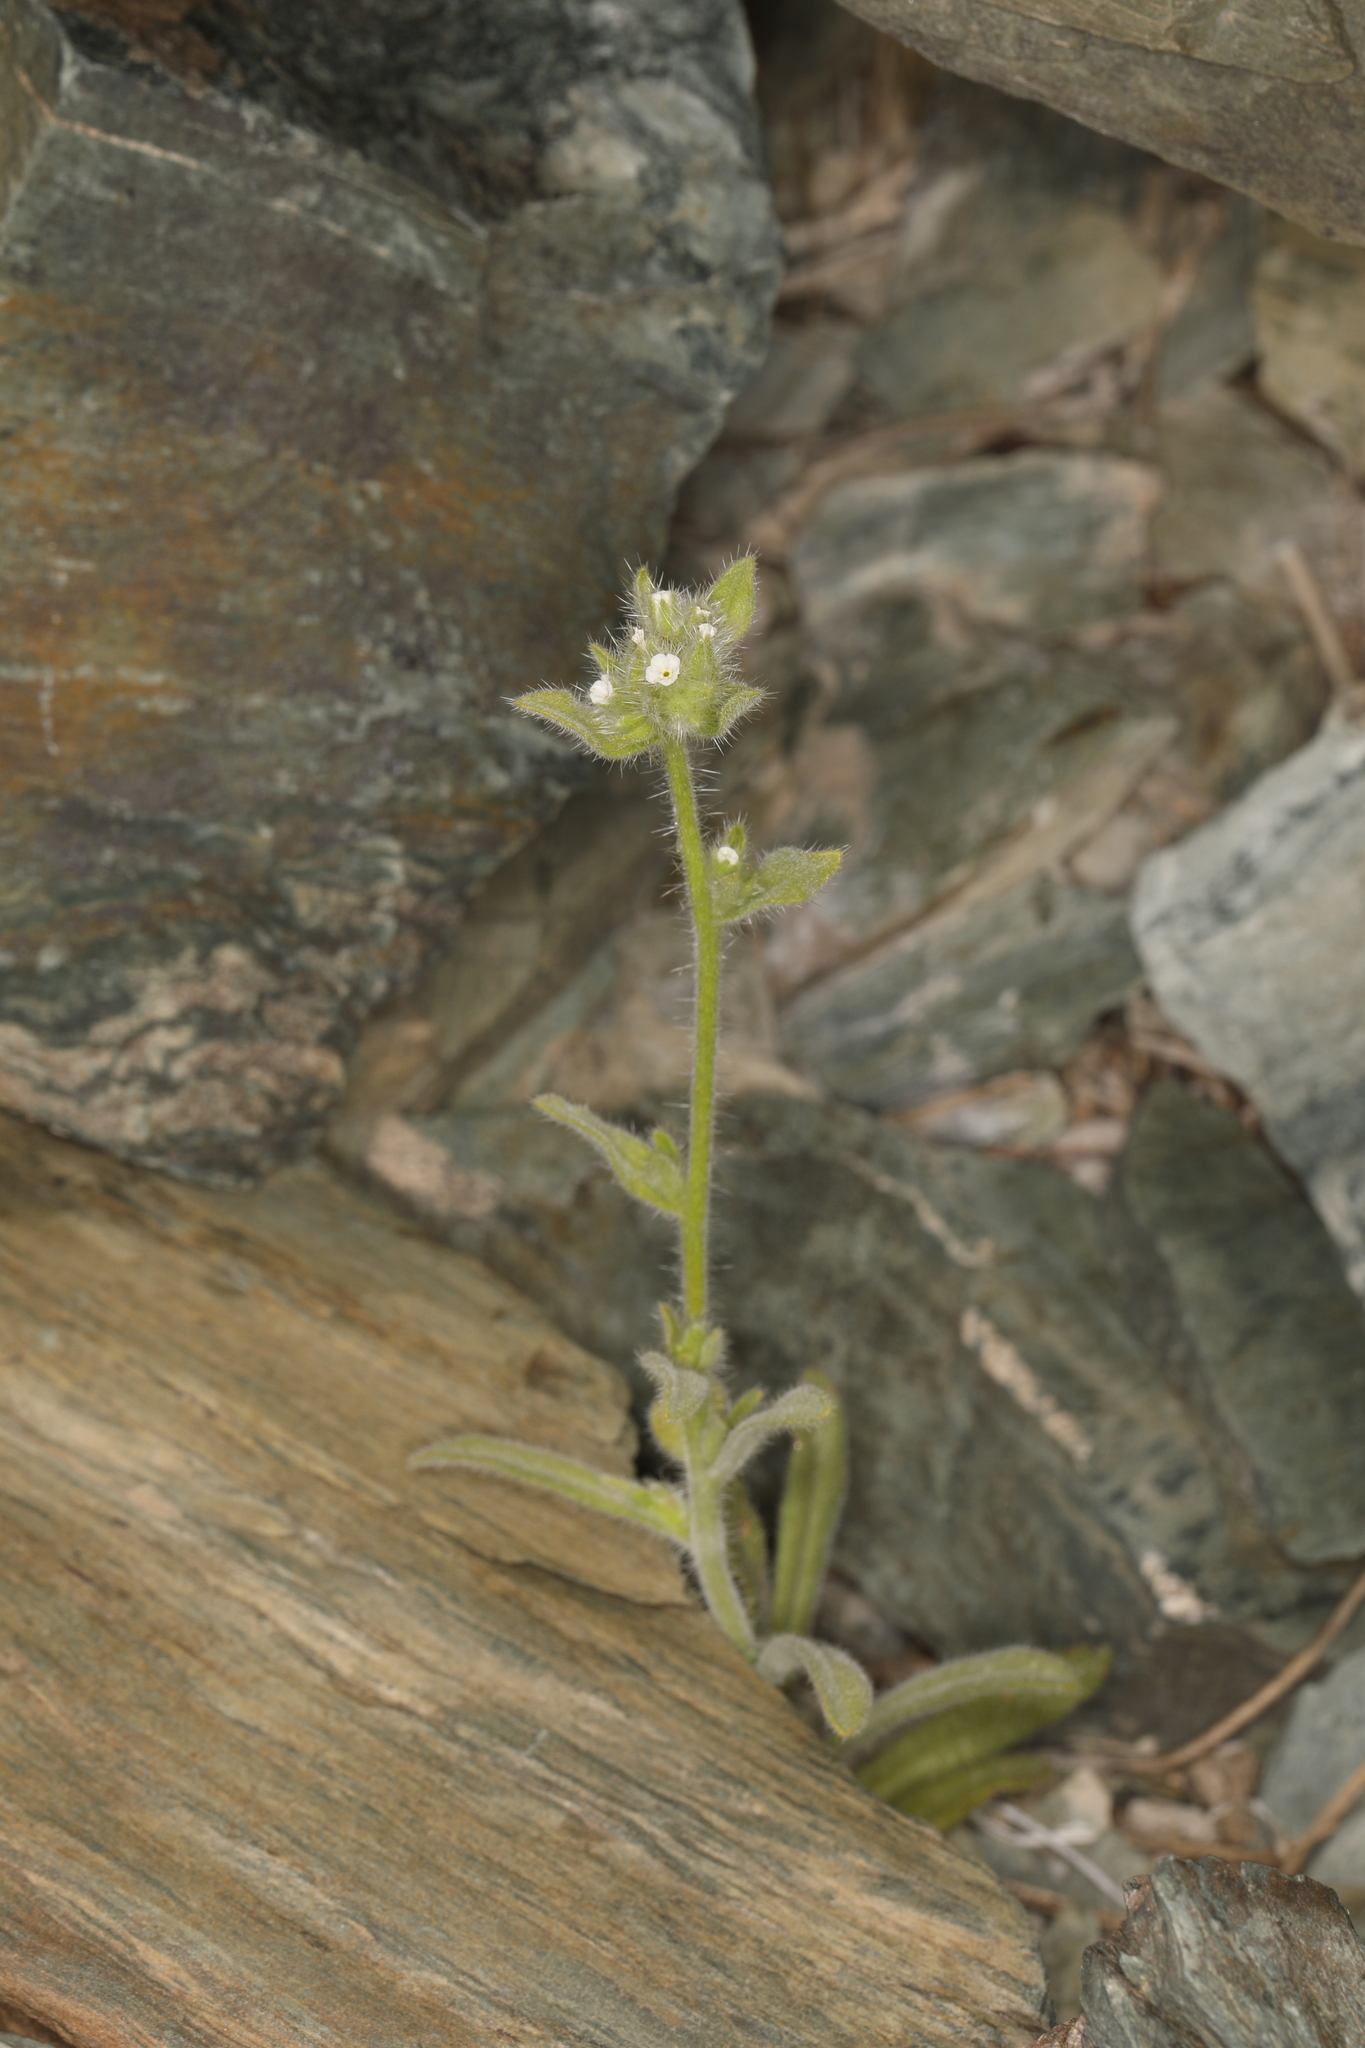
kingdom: Plantae
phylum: Tracheophyta
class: Magnoliopsida
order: Boraginales
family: Boraginaceae
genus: Simpsonanthus
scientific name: Simpsonanthus jonesii
